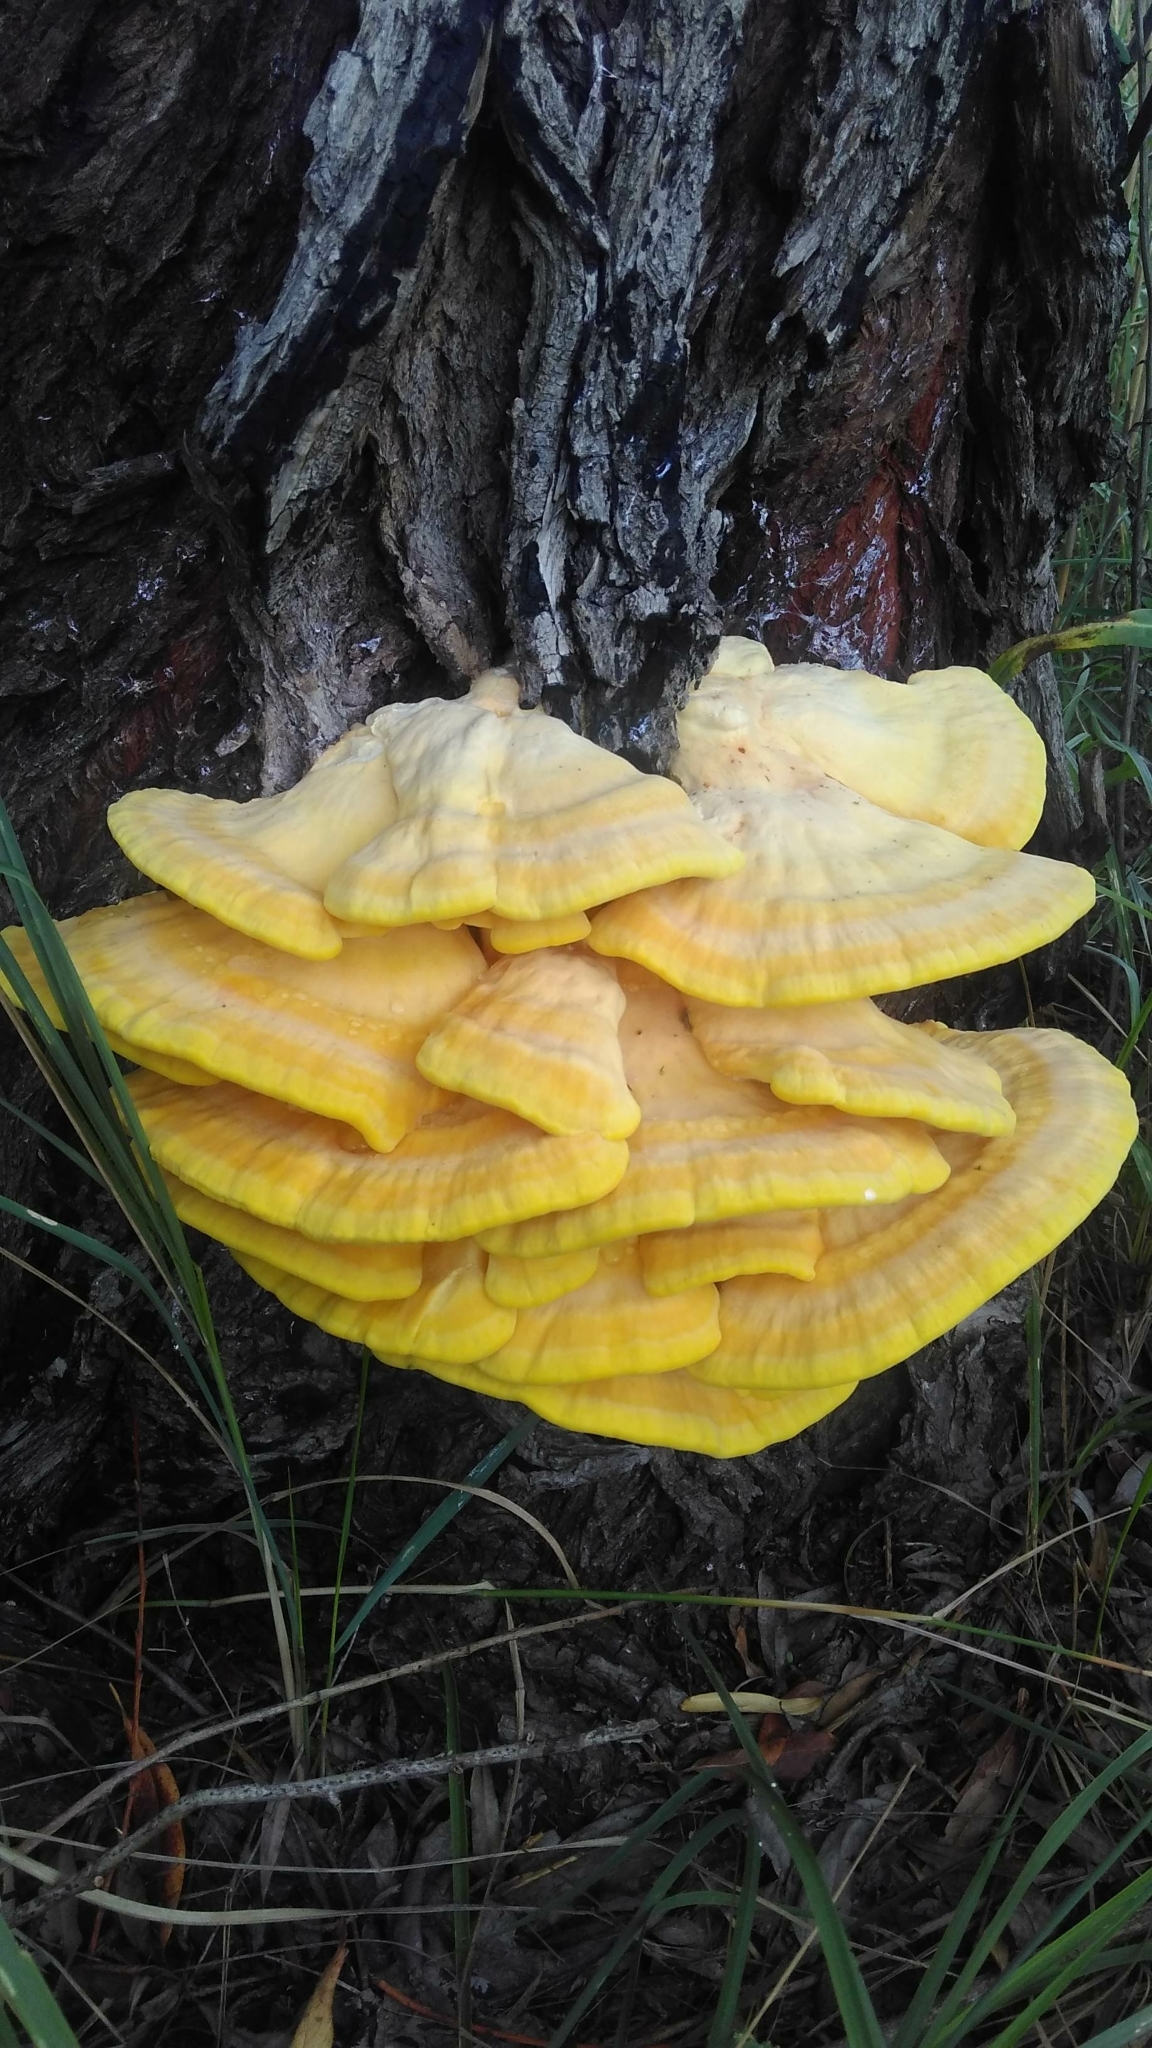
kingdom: Fungi
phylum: Basidiomycota
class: Agaricomycetes
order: Polyporales
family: Laetiporaceae
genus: Laetiporus
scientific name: Laetiporus sulphureus
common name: Chicken of the woods
